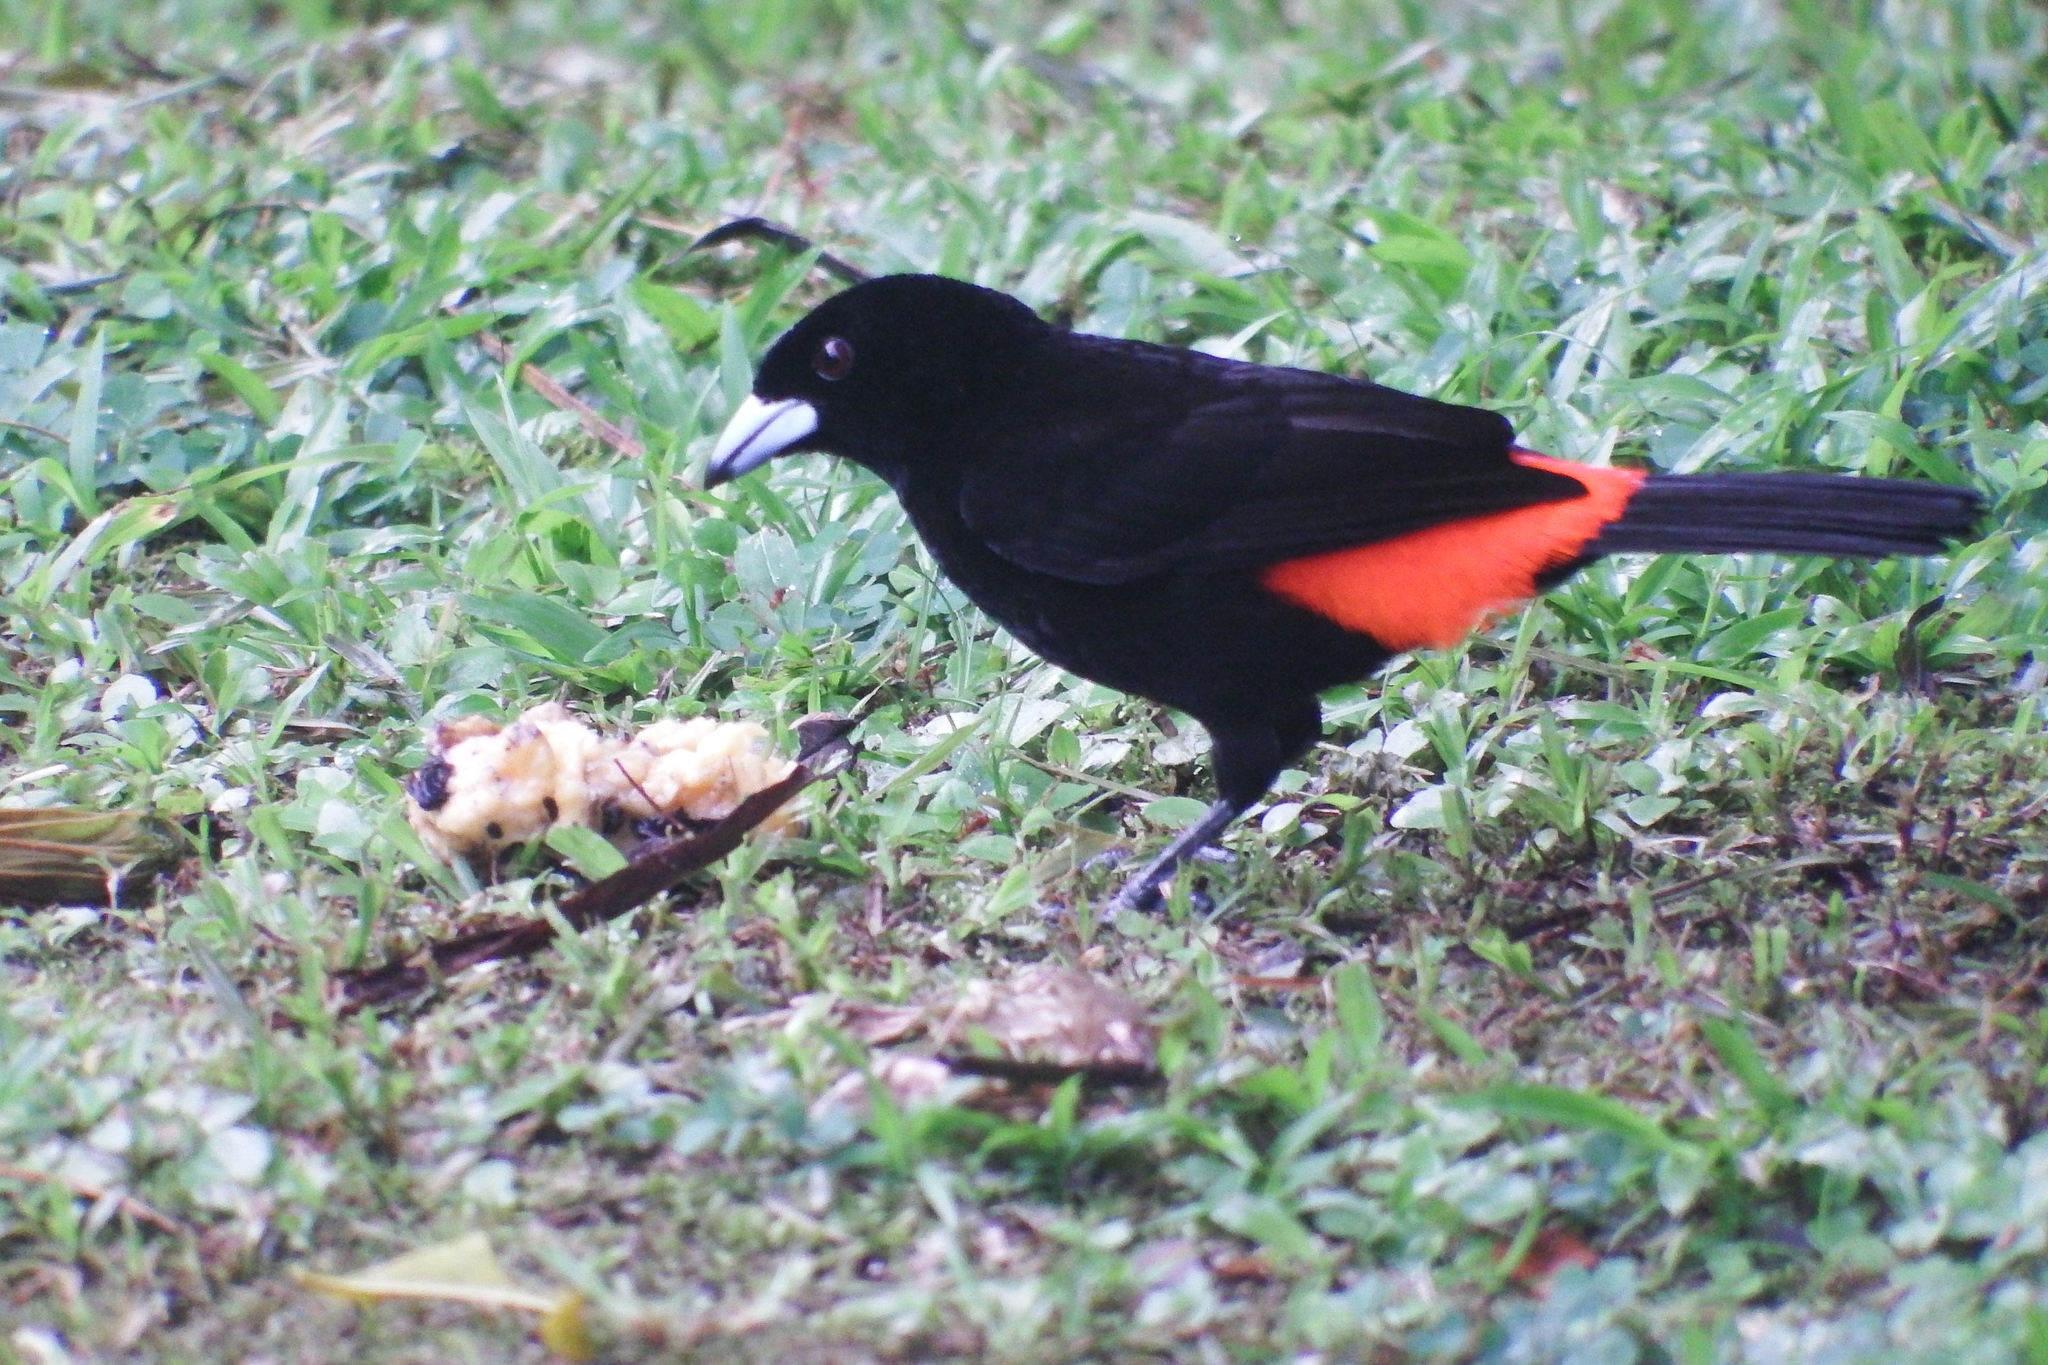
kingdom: Animalia
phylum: Chordata
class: Aves
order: Passeriformes
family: Thraupidae
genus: Ramphocelus
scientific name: Ramphocelus passerinii
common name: Passerini's tanager
